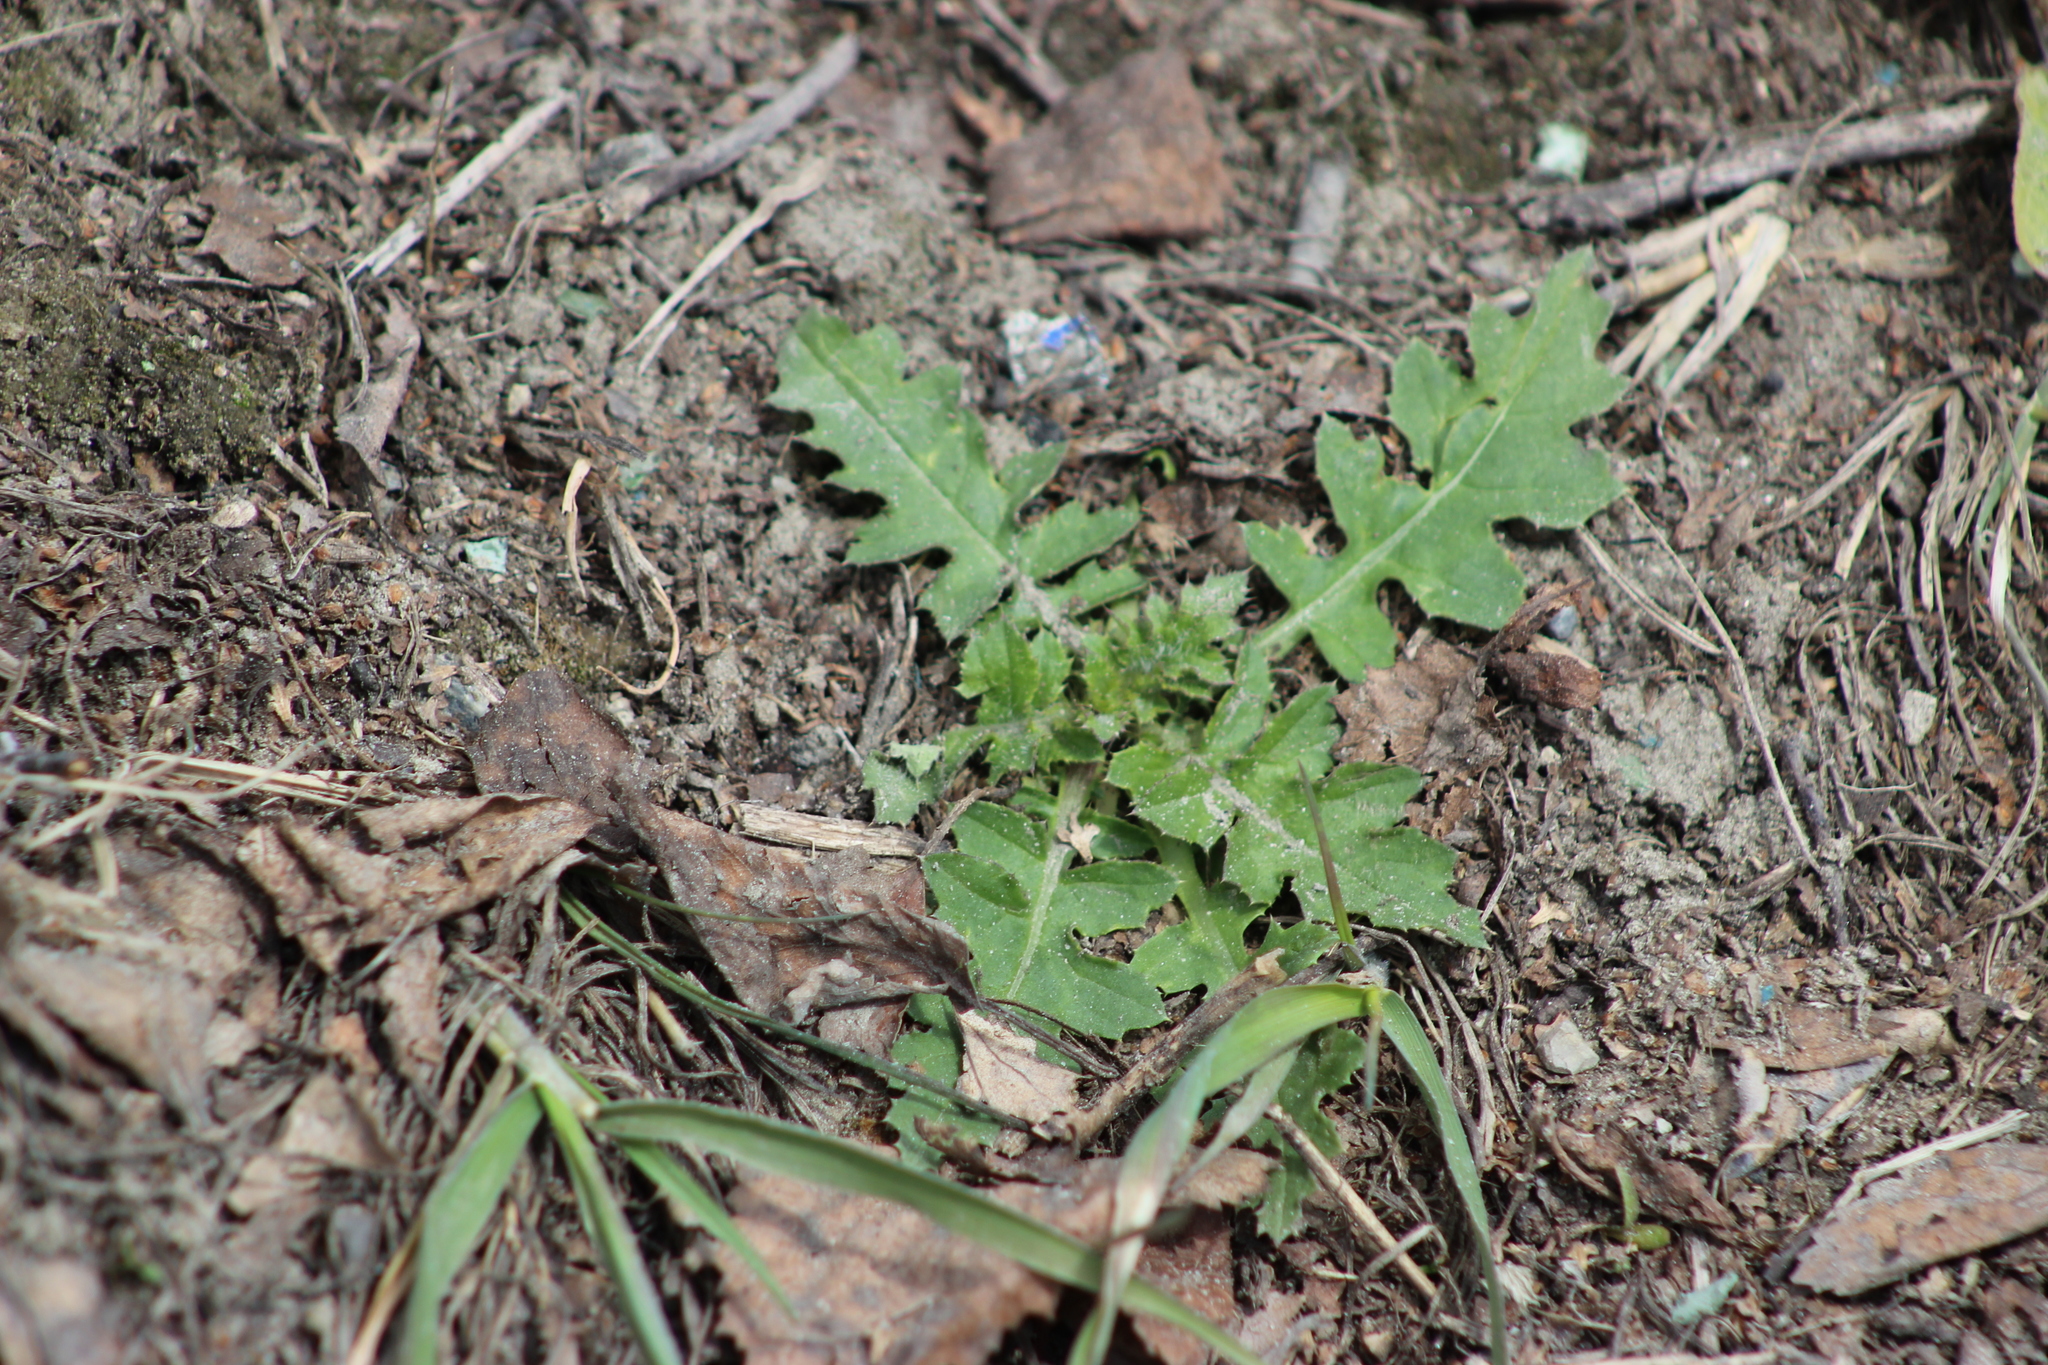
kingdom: Plantae
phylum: Tracheophyta
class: Magnoliopsida
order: Asterales
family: Asteraceae
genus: Carduus
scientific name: Carduus crispus
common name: Welted thistle
